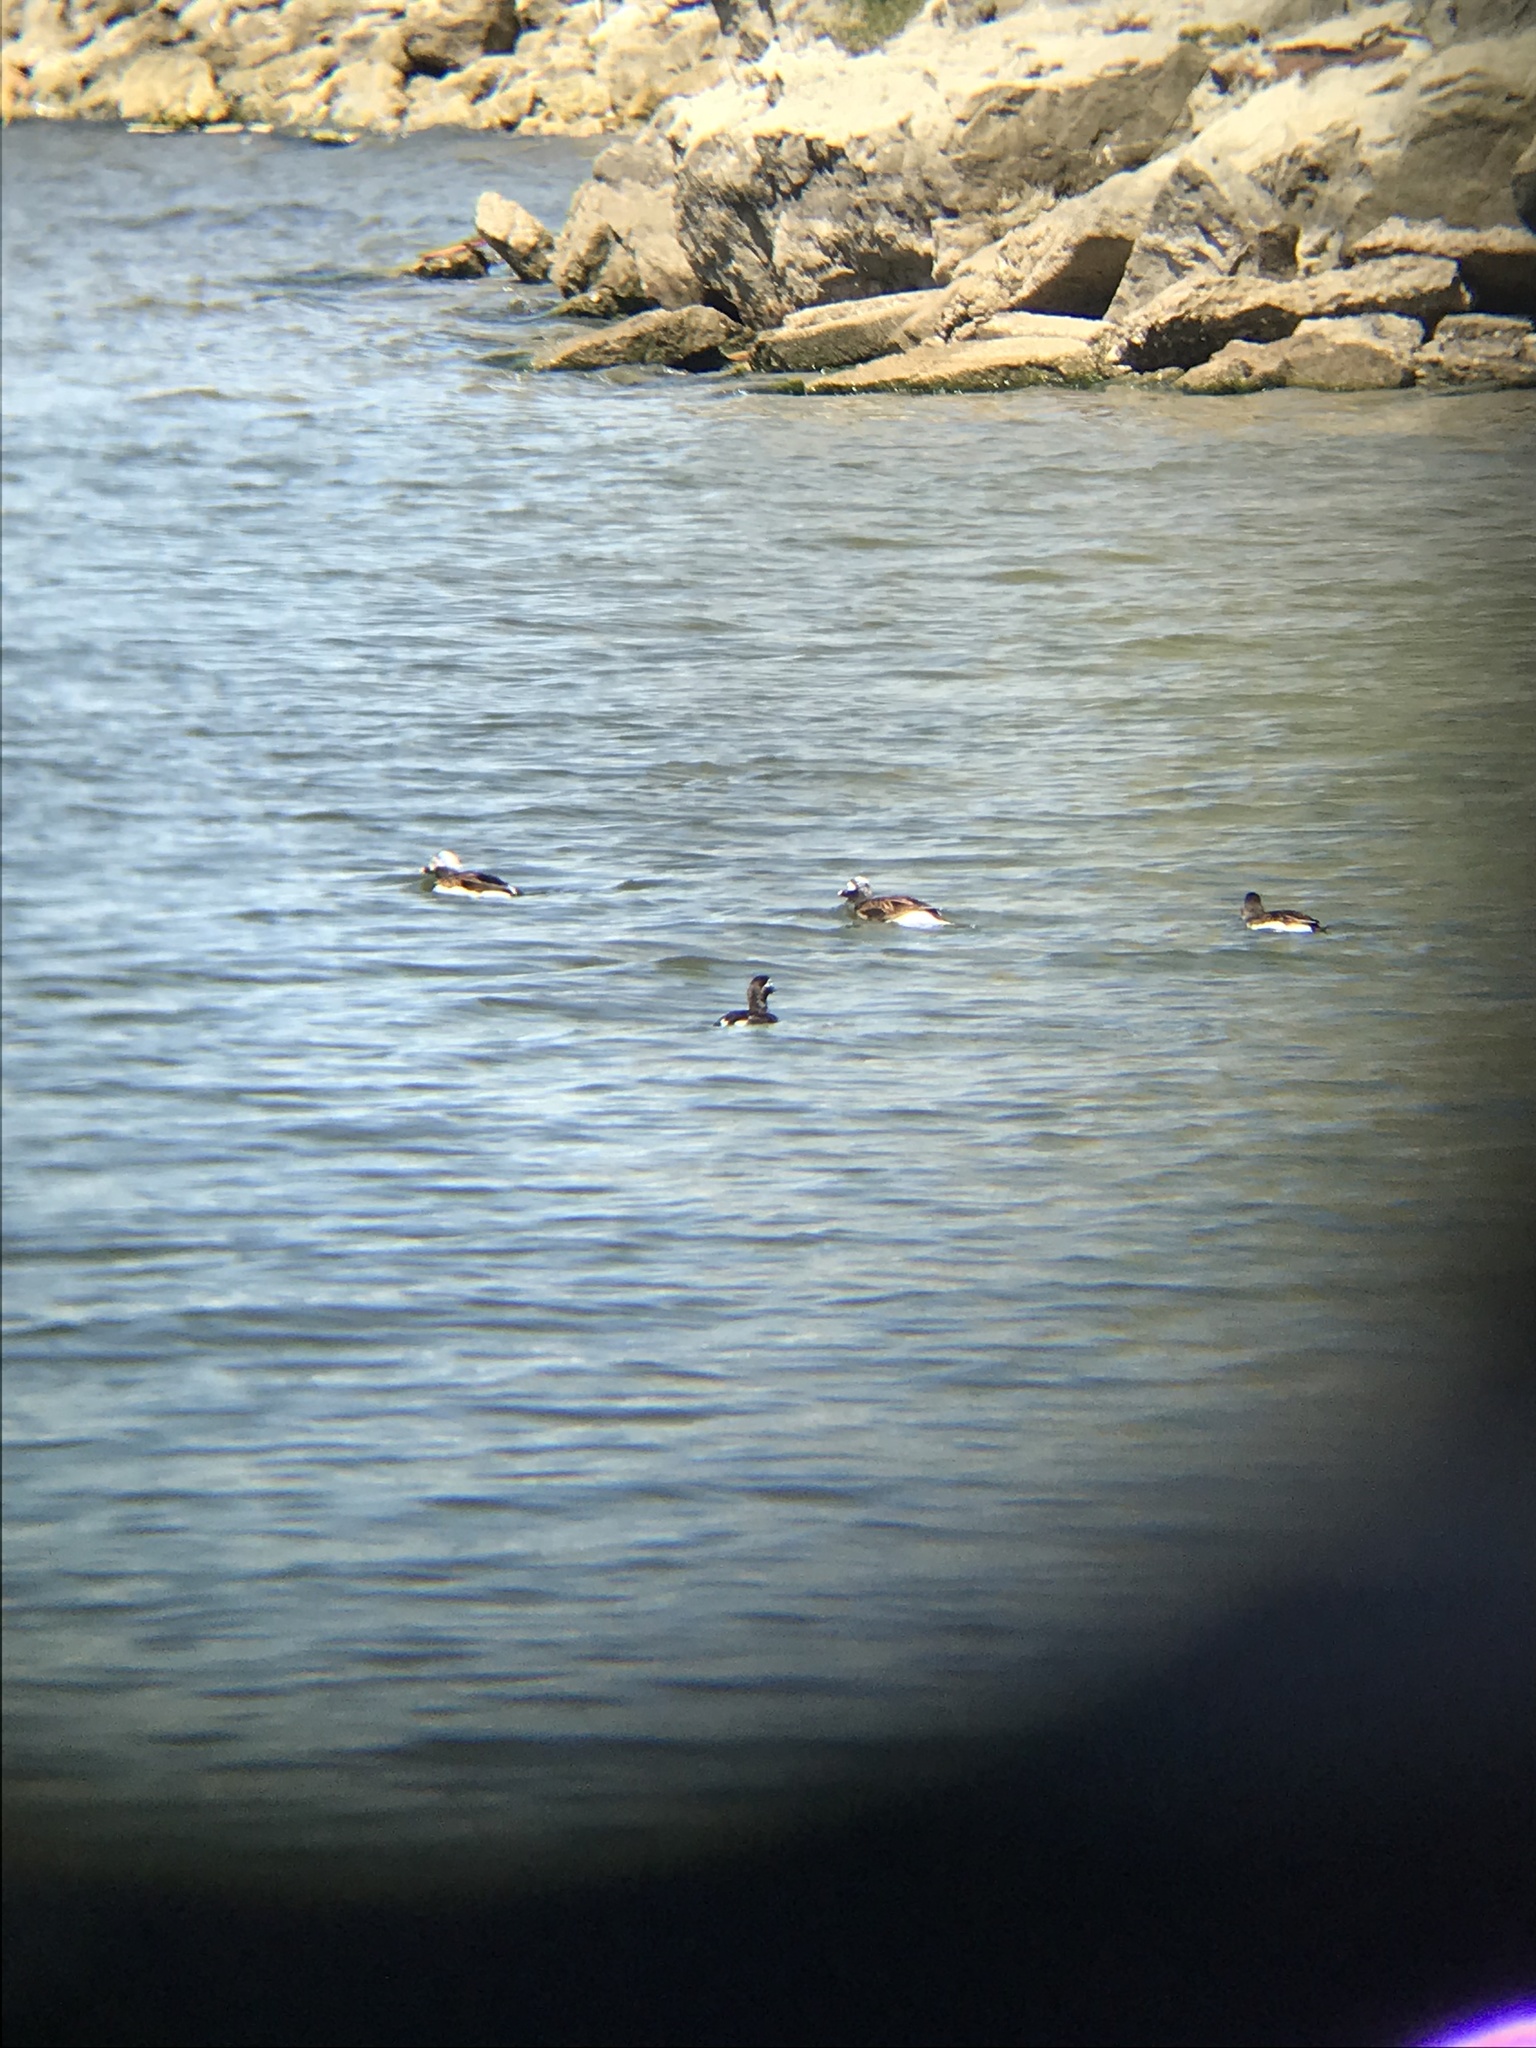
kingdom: Animalia
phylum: Chordata
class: Aves
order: Anseriformes
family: Anatidae
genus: Clangula
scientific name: Clangula hyemalis
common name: Long-tailed duck
